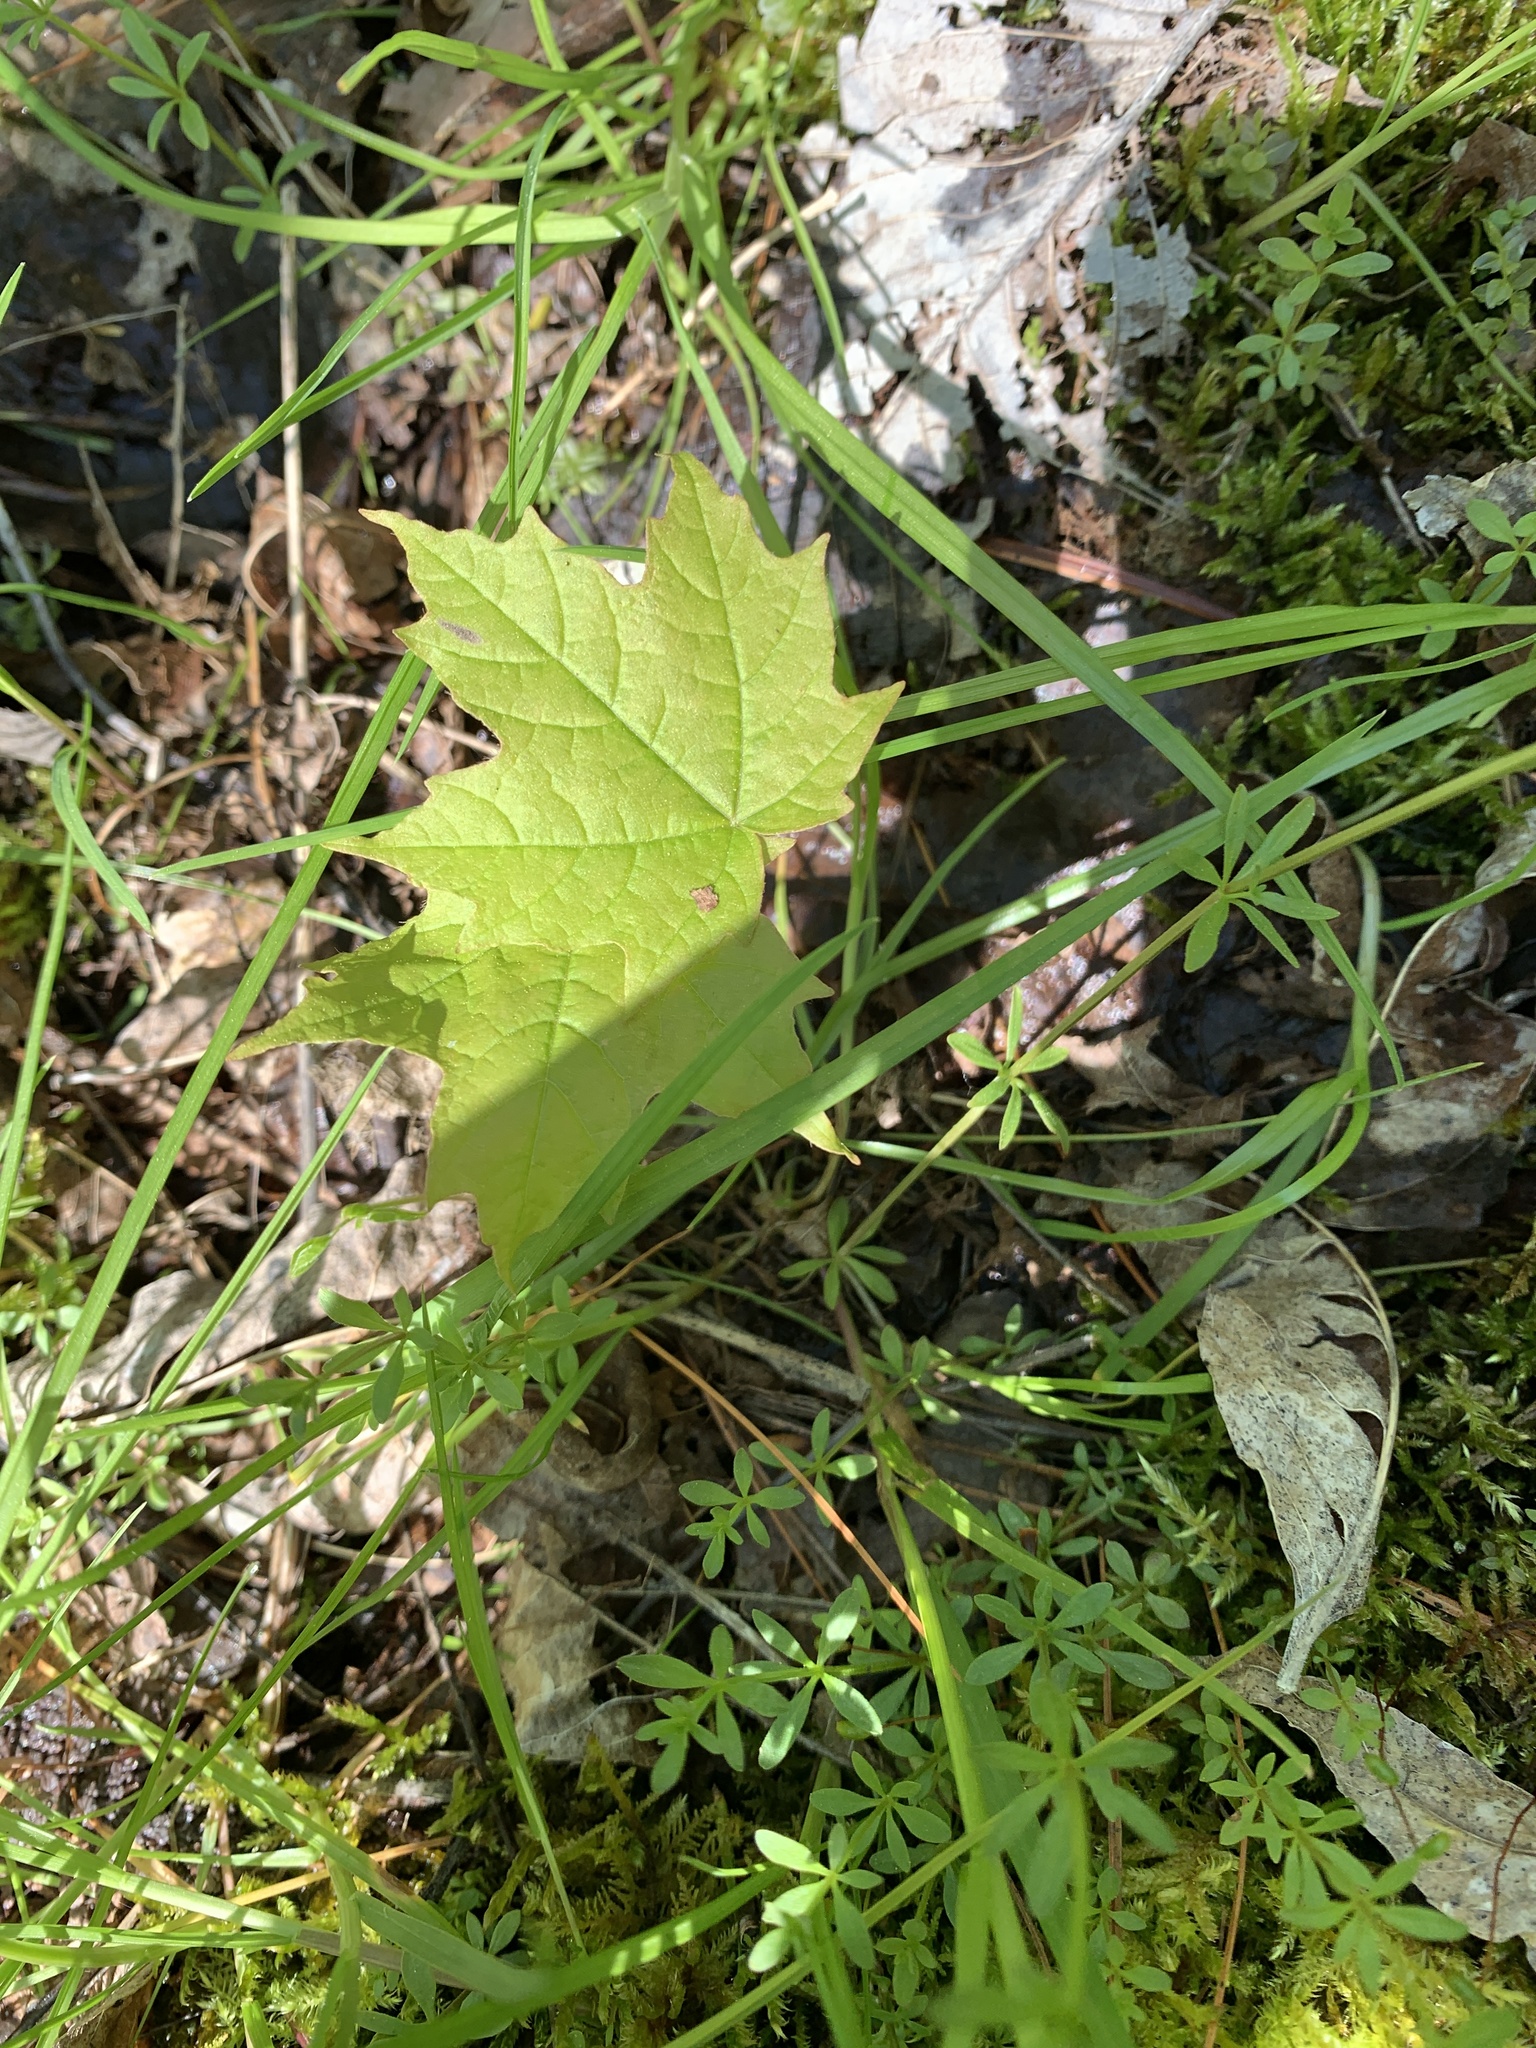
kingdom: Plantae
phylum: Tracheophyta
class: Magnoliopsida
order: Sapindales
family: Sapindaceae
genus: Acer
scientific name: Acer saccharum
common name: Sugar maple
